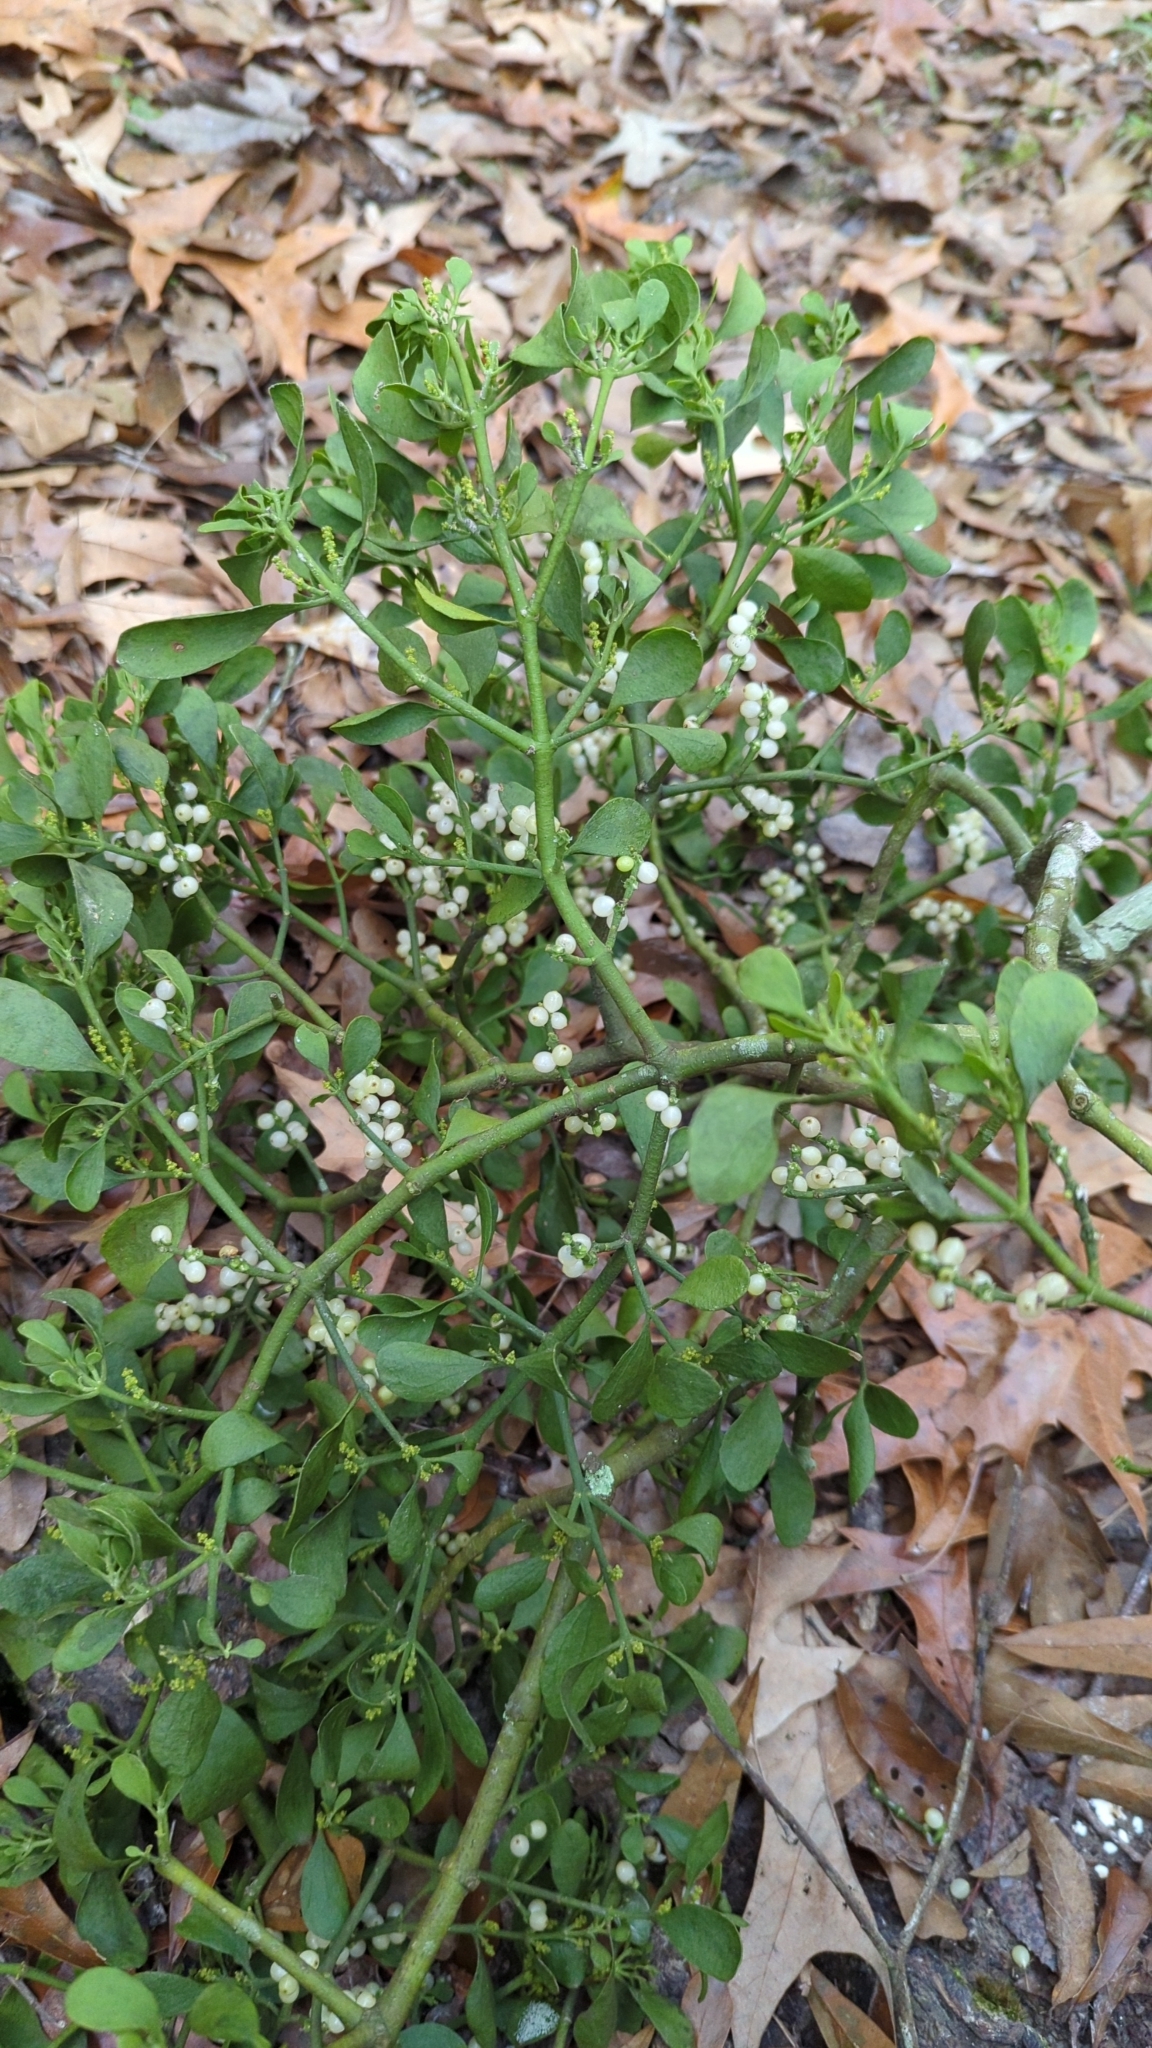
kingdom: Plantae
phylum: Tracheophyta
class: Magnoliopsida
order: Santalales
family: Viscaceae
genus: Phoradendron
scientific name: Phoradendron leucarpum
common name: Pacific mistletoe
